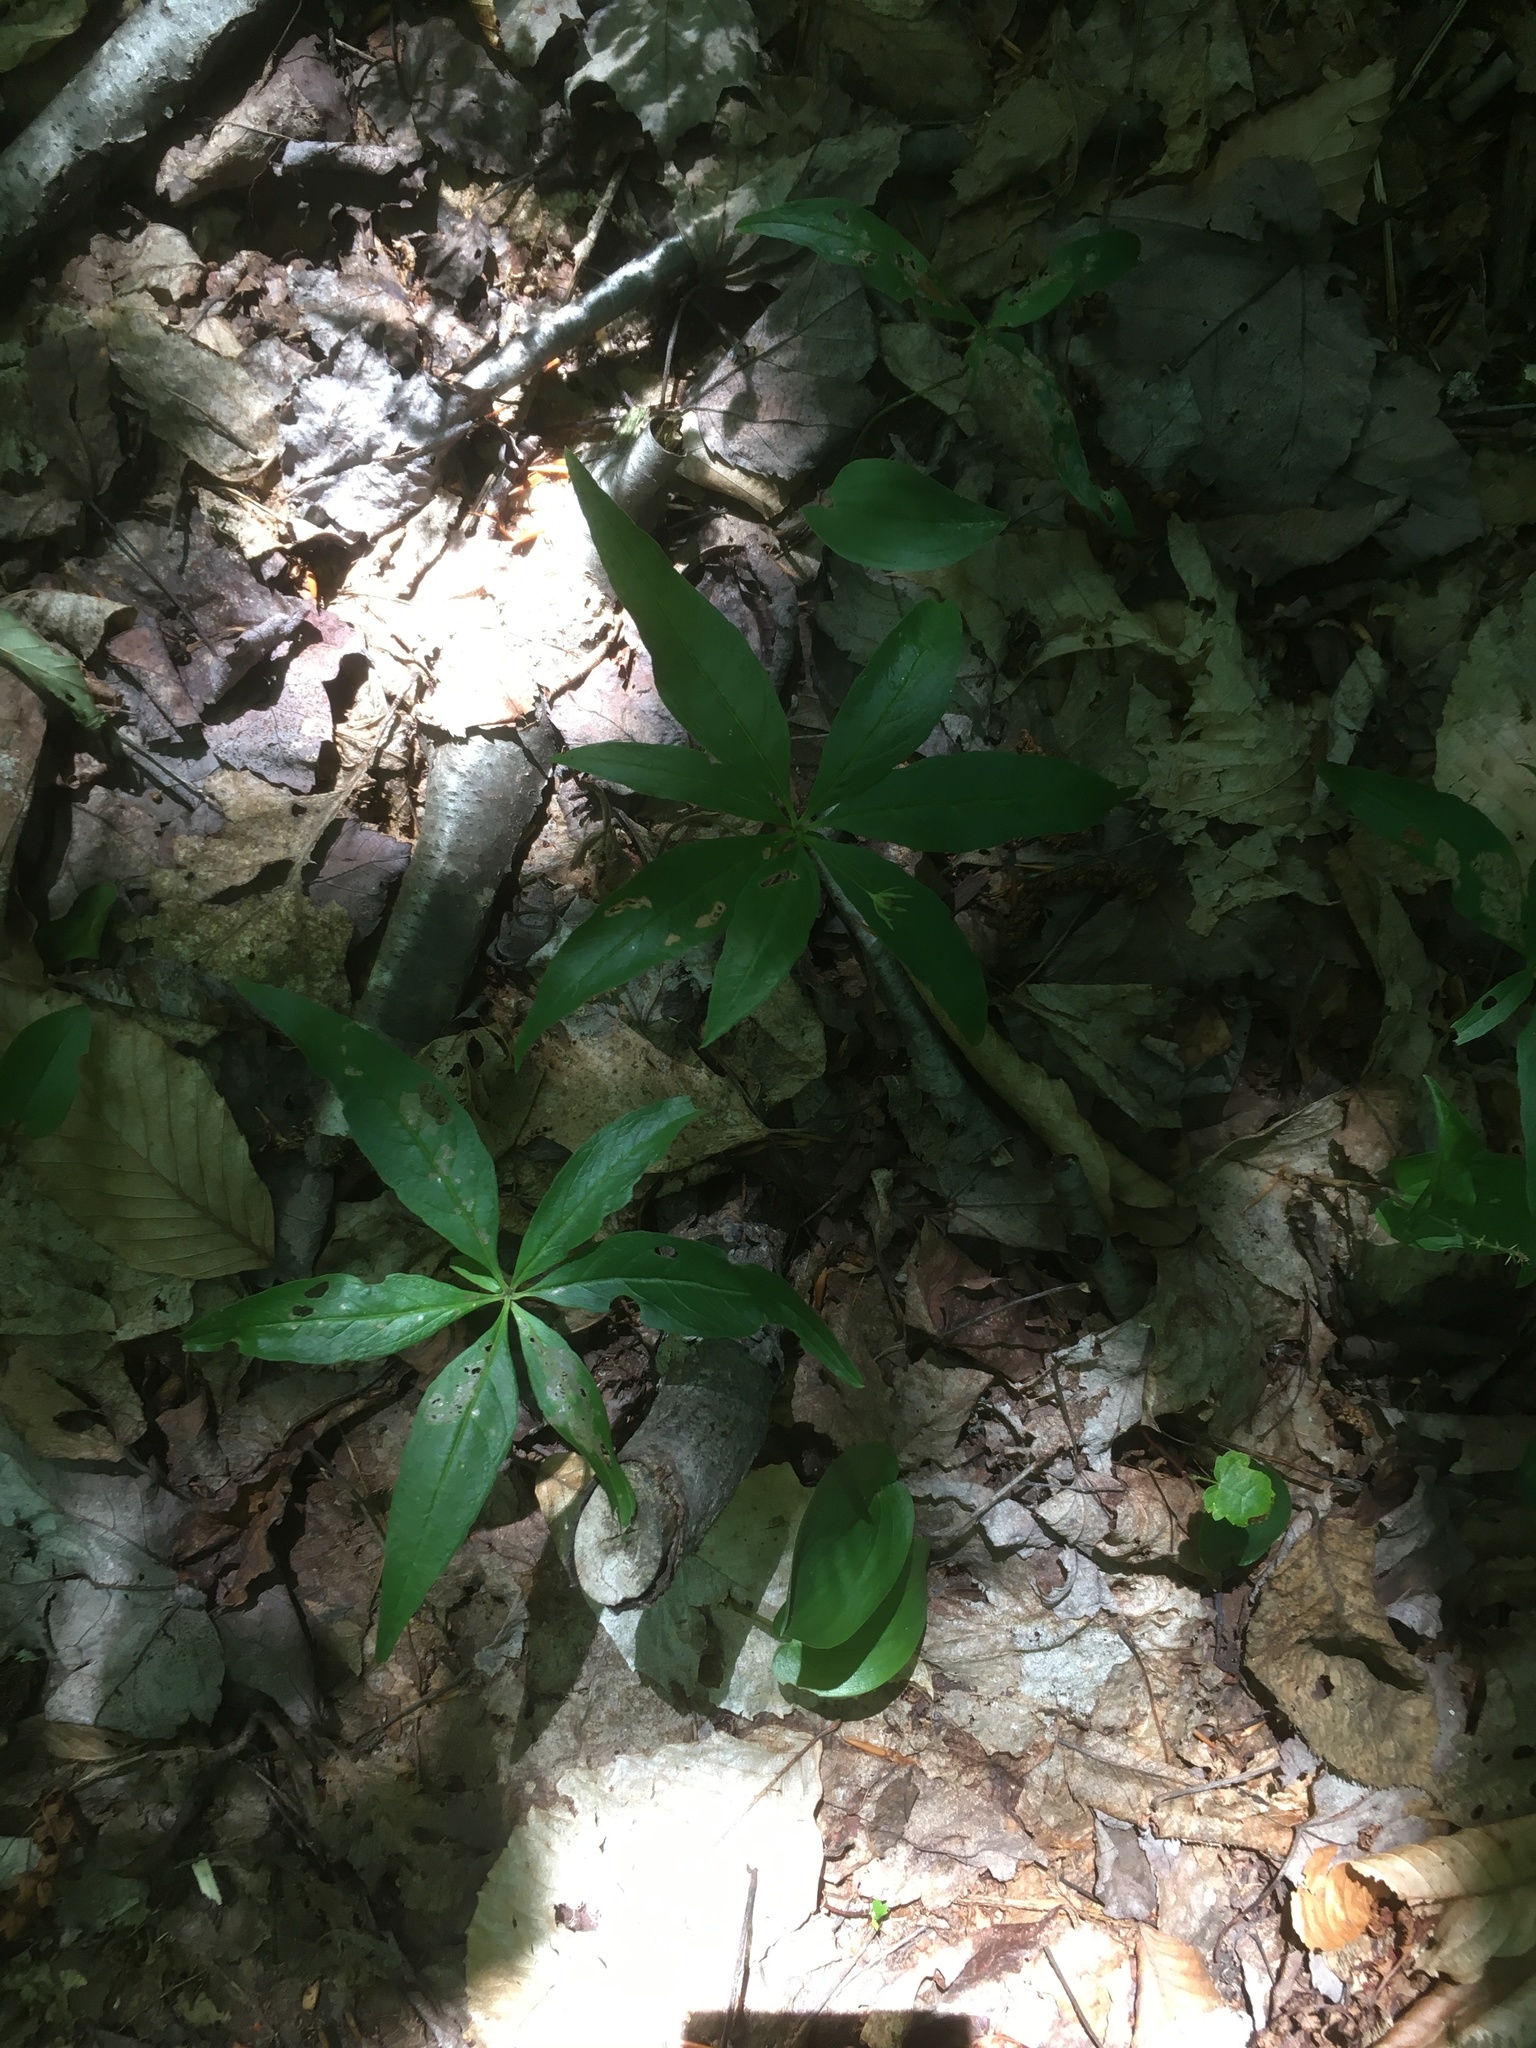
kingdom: Plantae
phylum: Tracheophyta
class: Magnoliopsida
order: Ericales
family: Primulaceae
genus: Lysimachia
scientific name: Lysimachia borealis
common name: American starflower
